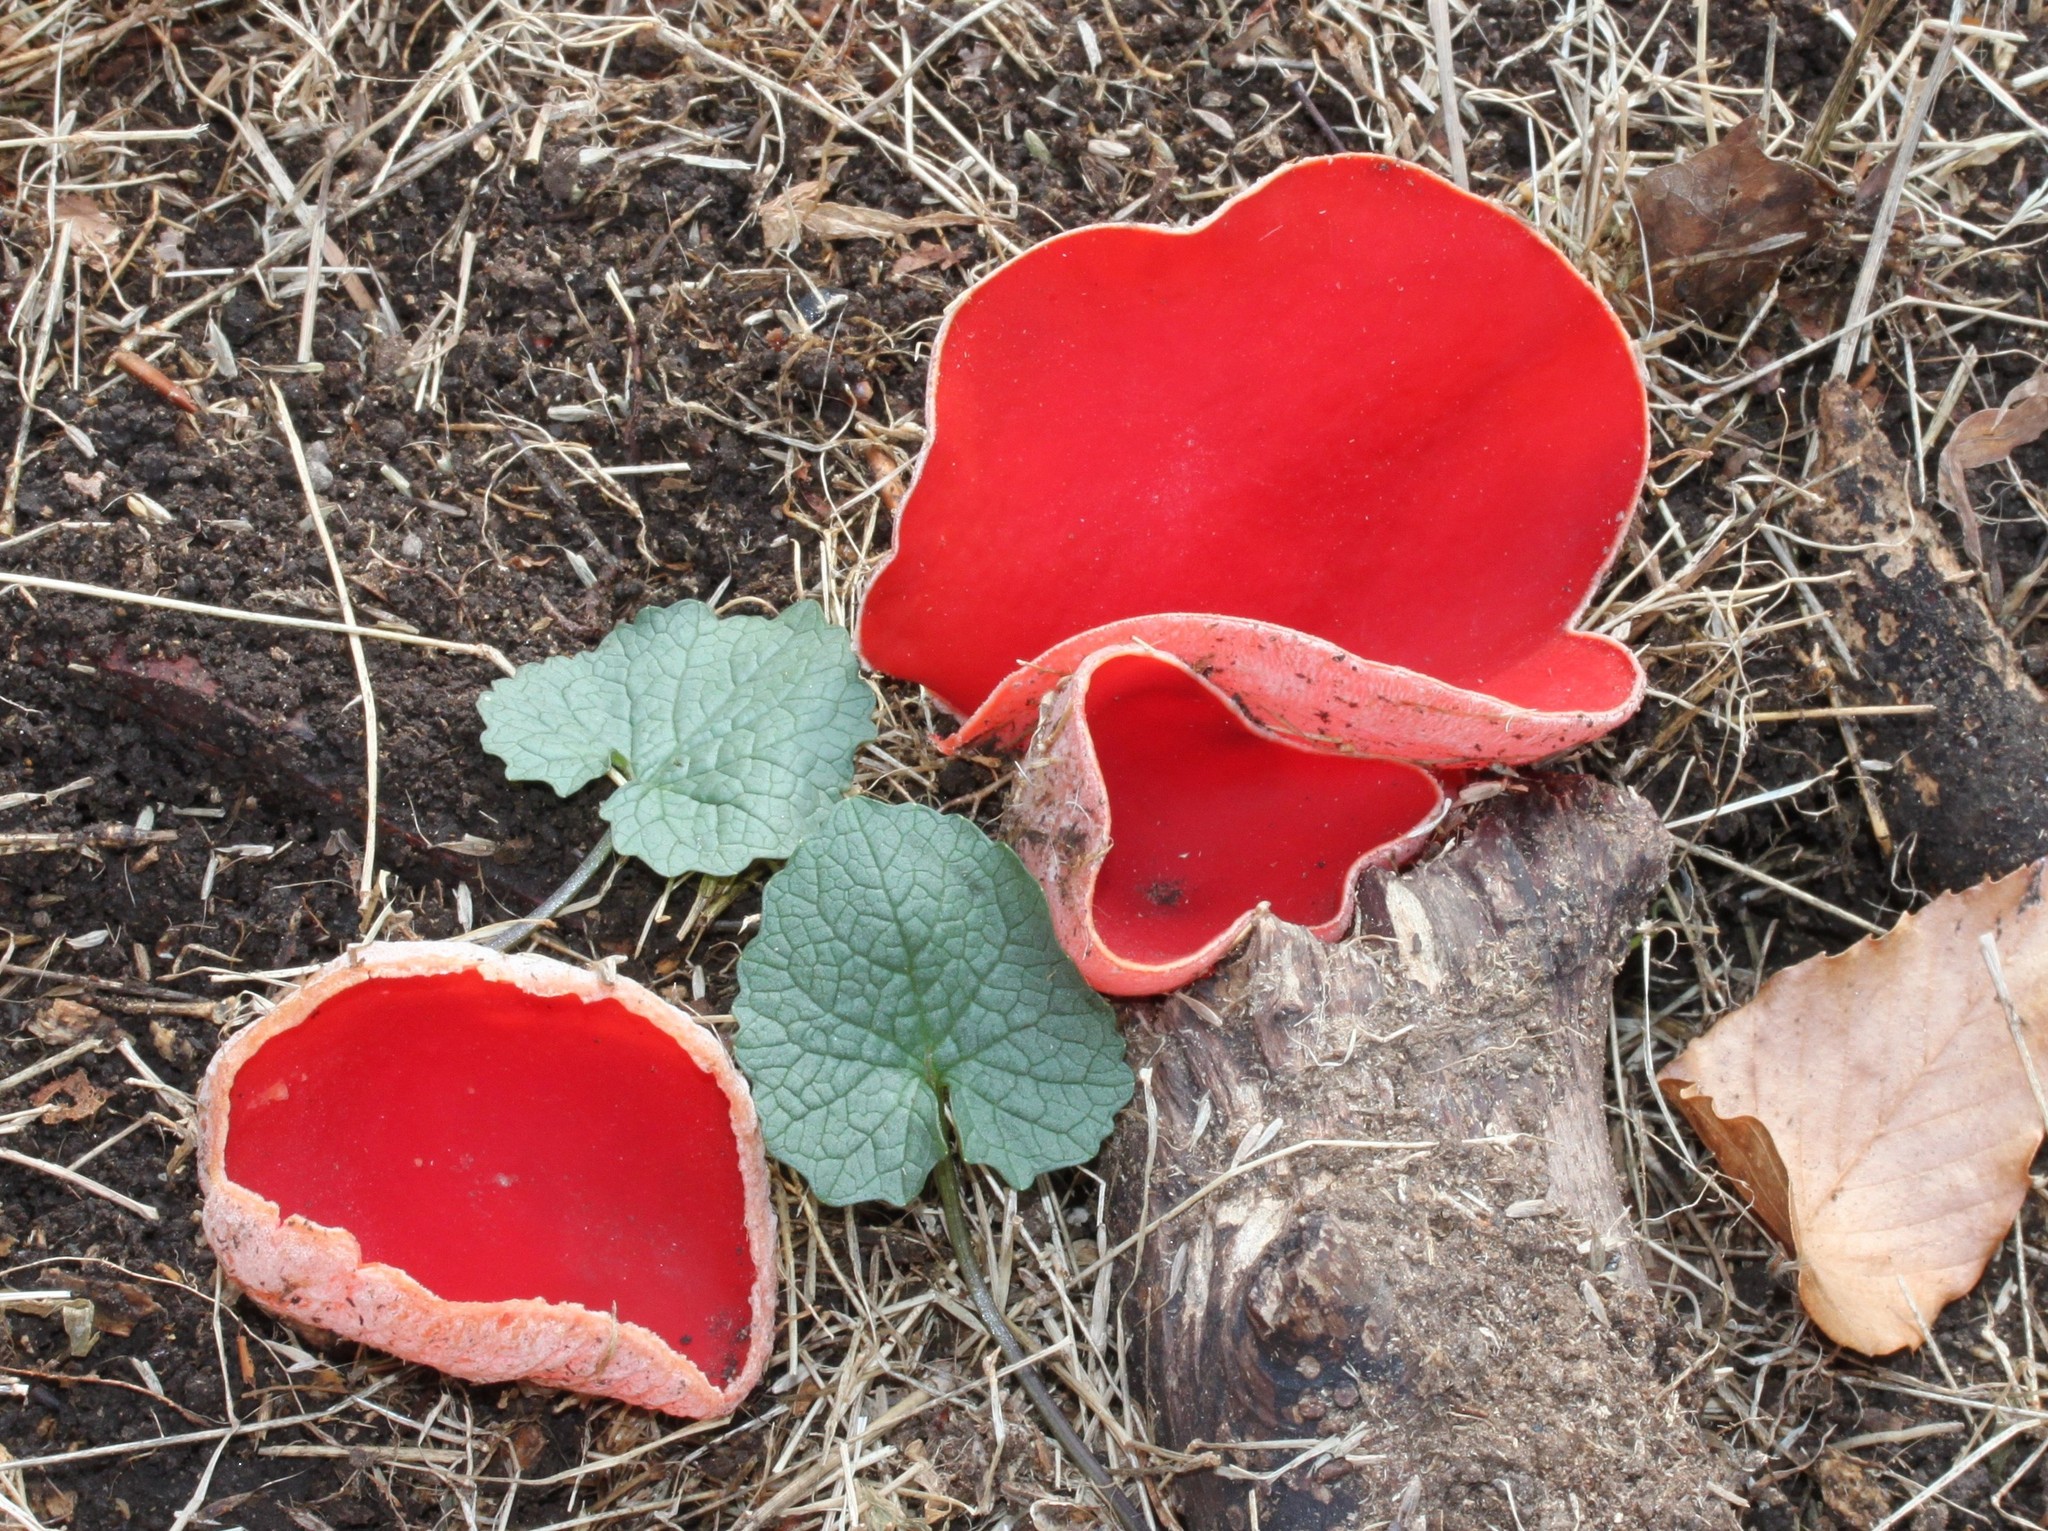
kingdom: Fungi
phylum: Ascomycota
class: Pezizomycetes
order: Pezizales
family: Sarcoscyphaceae
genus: Sarcoscypha
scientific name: Sarcoscypha austriaca
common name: Scarlet elfcup
